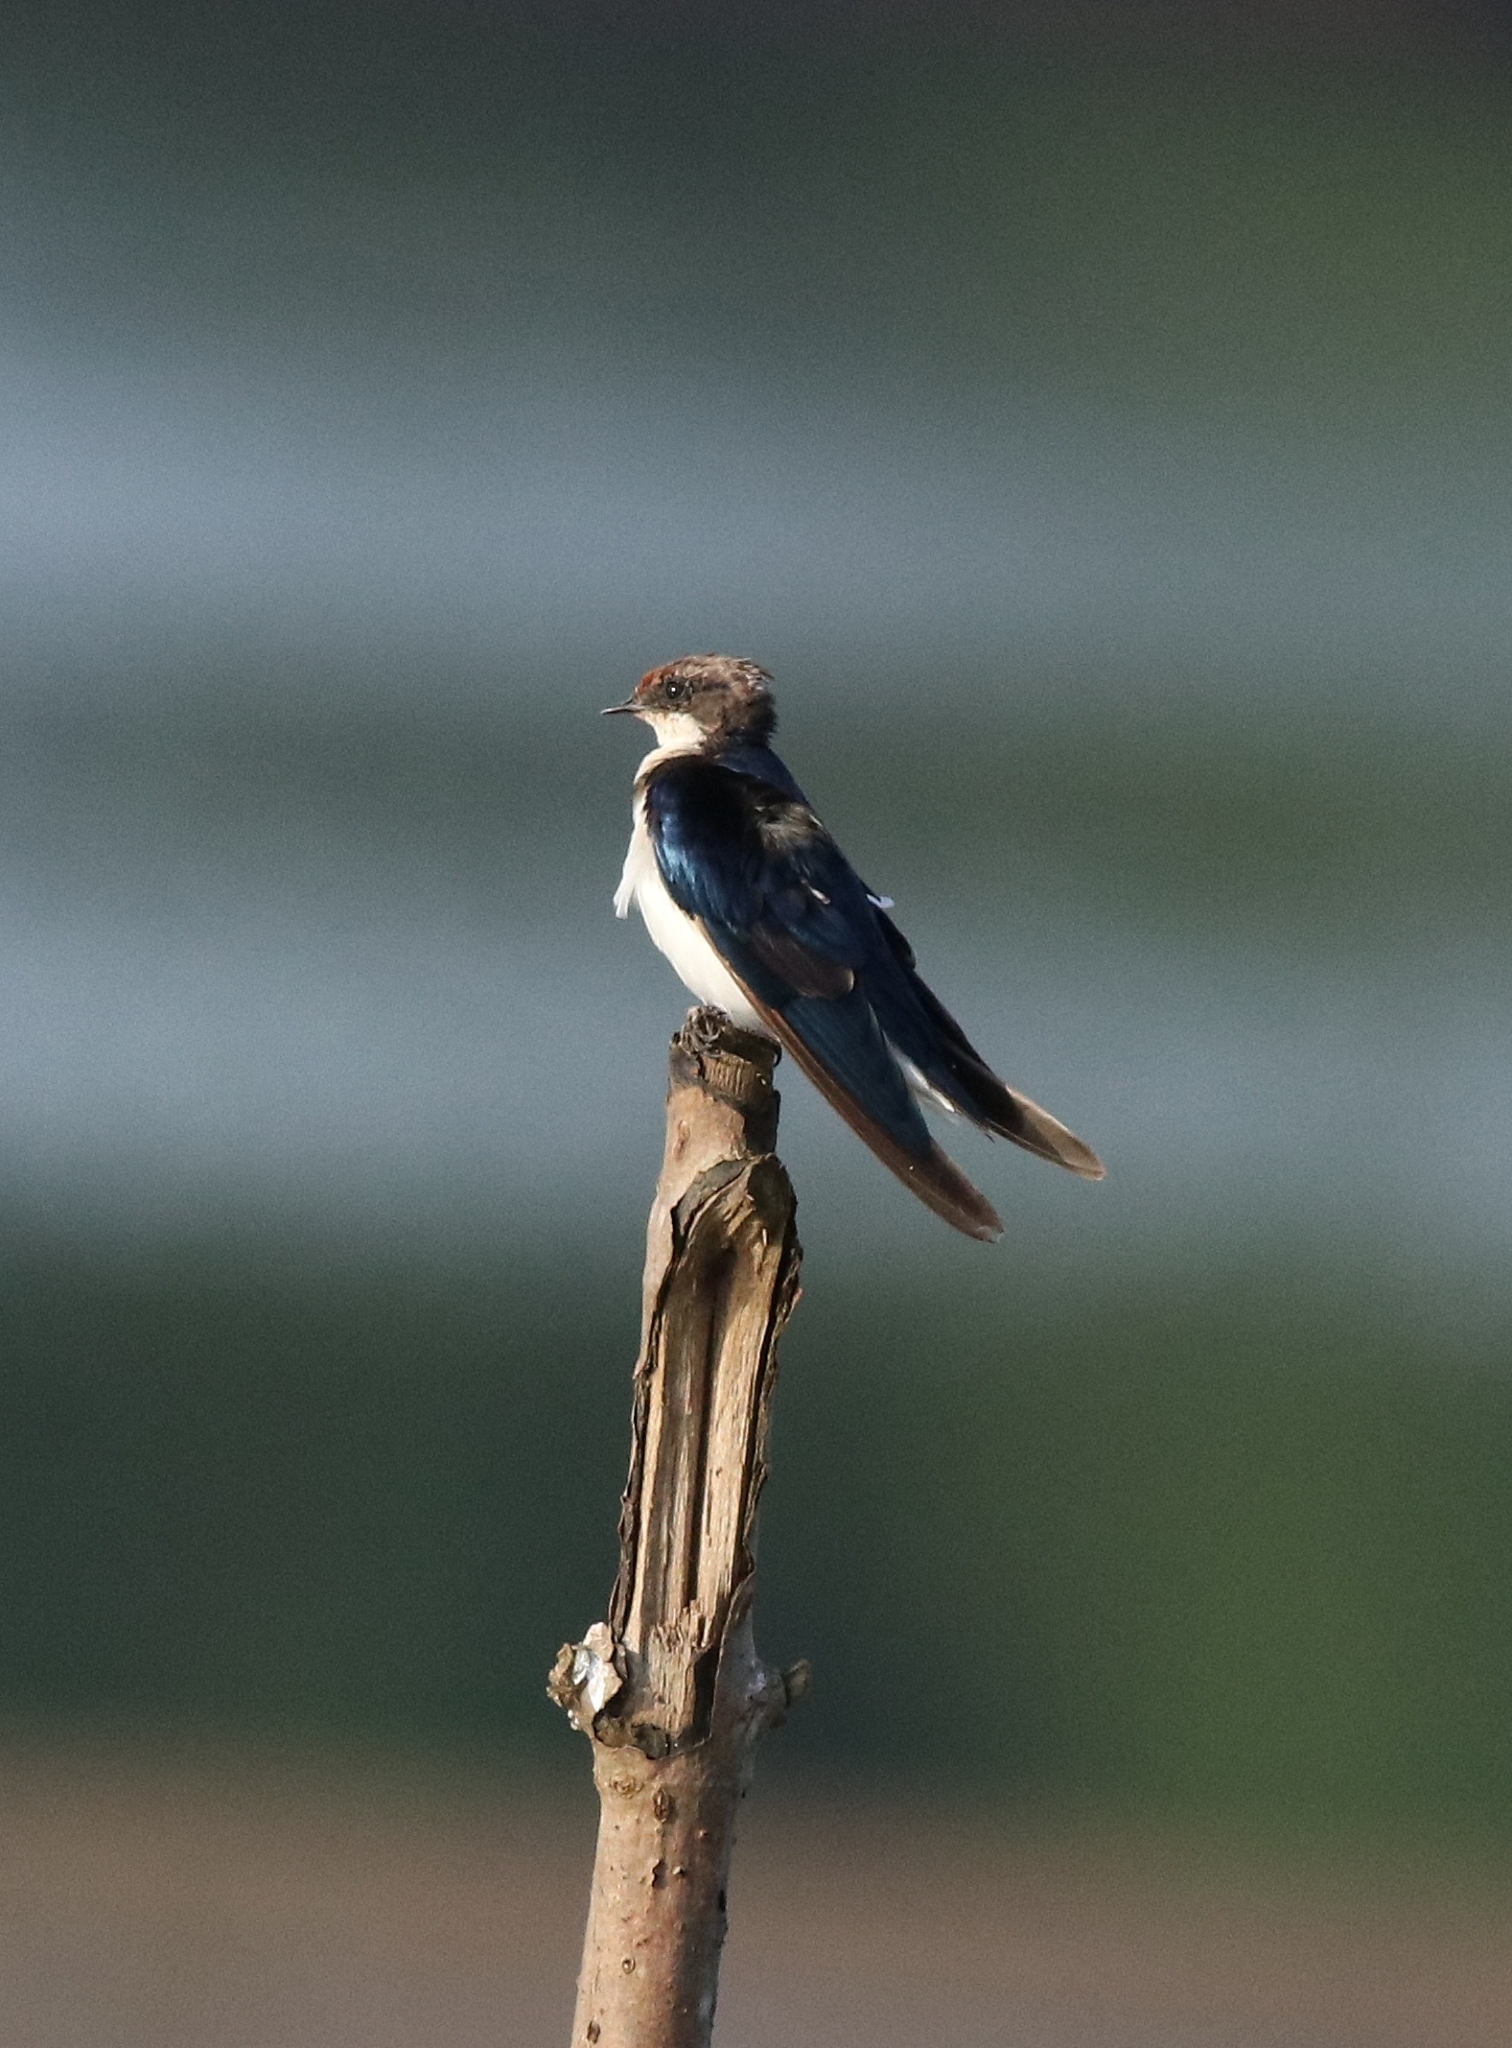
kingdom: Animalia
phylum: Chordata
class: Aves
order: Passeriformes
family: Hirundinidae
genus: Hirundo
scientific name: Hirundo smithii
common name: Wire-tailed swallow
